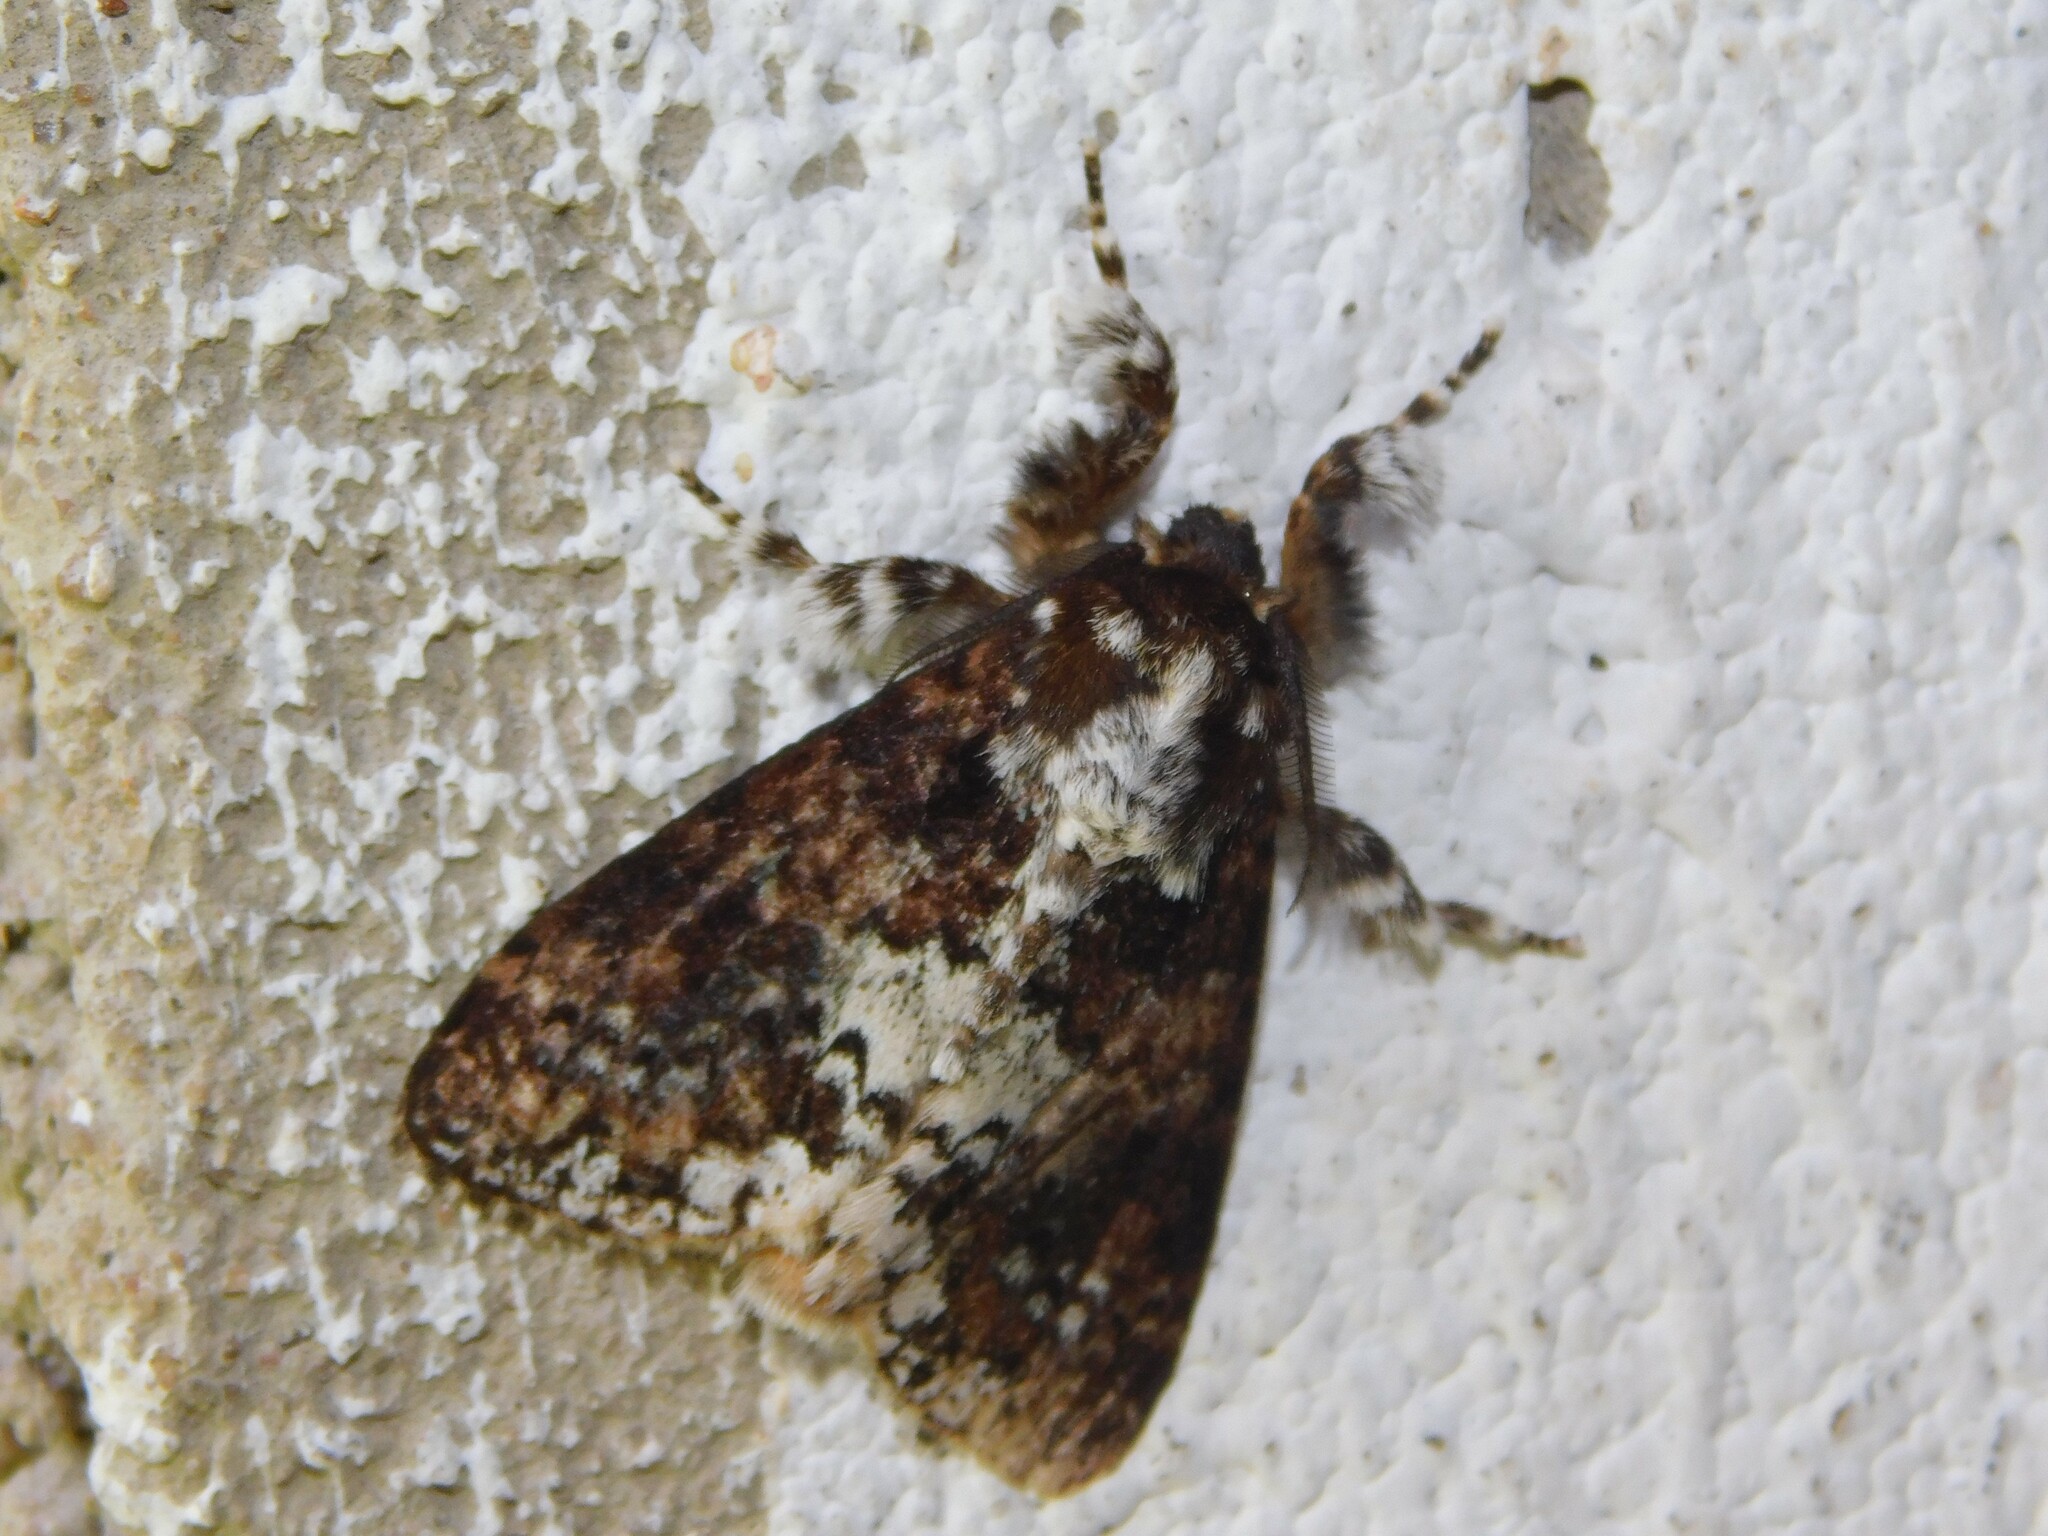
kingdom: Animalia
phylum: Arthropoda
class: Insecta
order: Lepidoptera
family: Erebidae
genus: Dasychira
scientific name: Dasychira goodii
